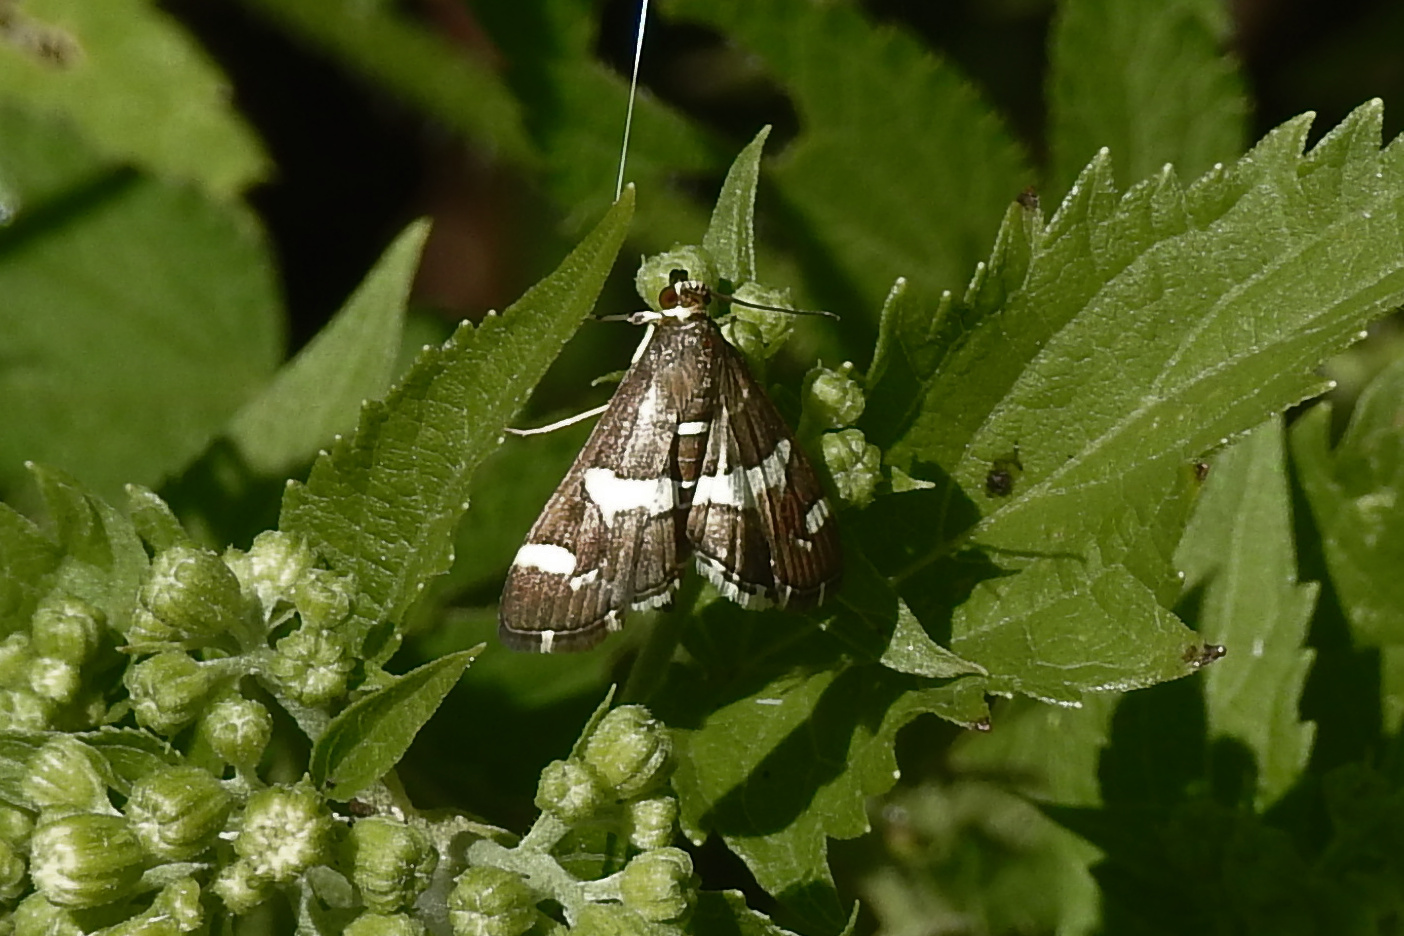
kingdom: Animalia
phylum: Arthropoda
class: Insecta
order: Lepidoptera
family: Crambidae
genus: Spoladea
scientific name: Spoladea recurvalis
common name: Beet webworm moth
